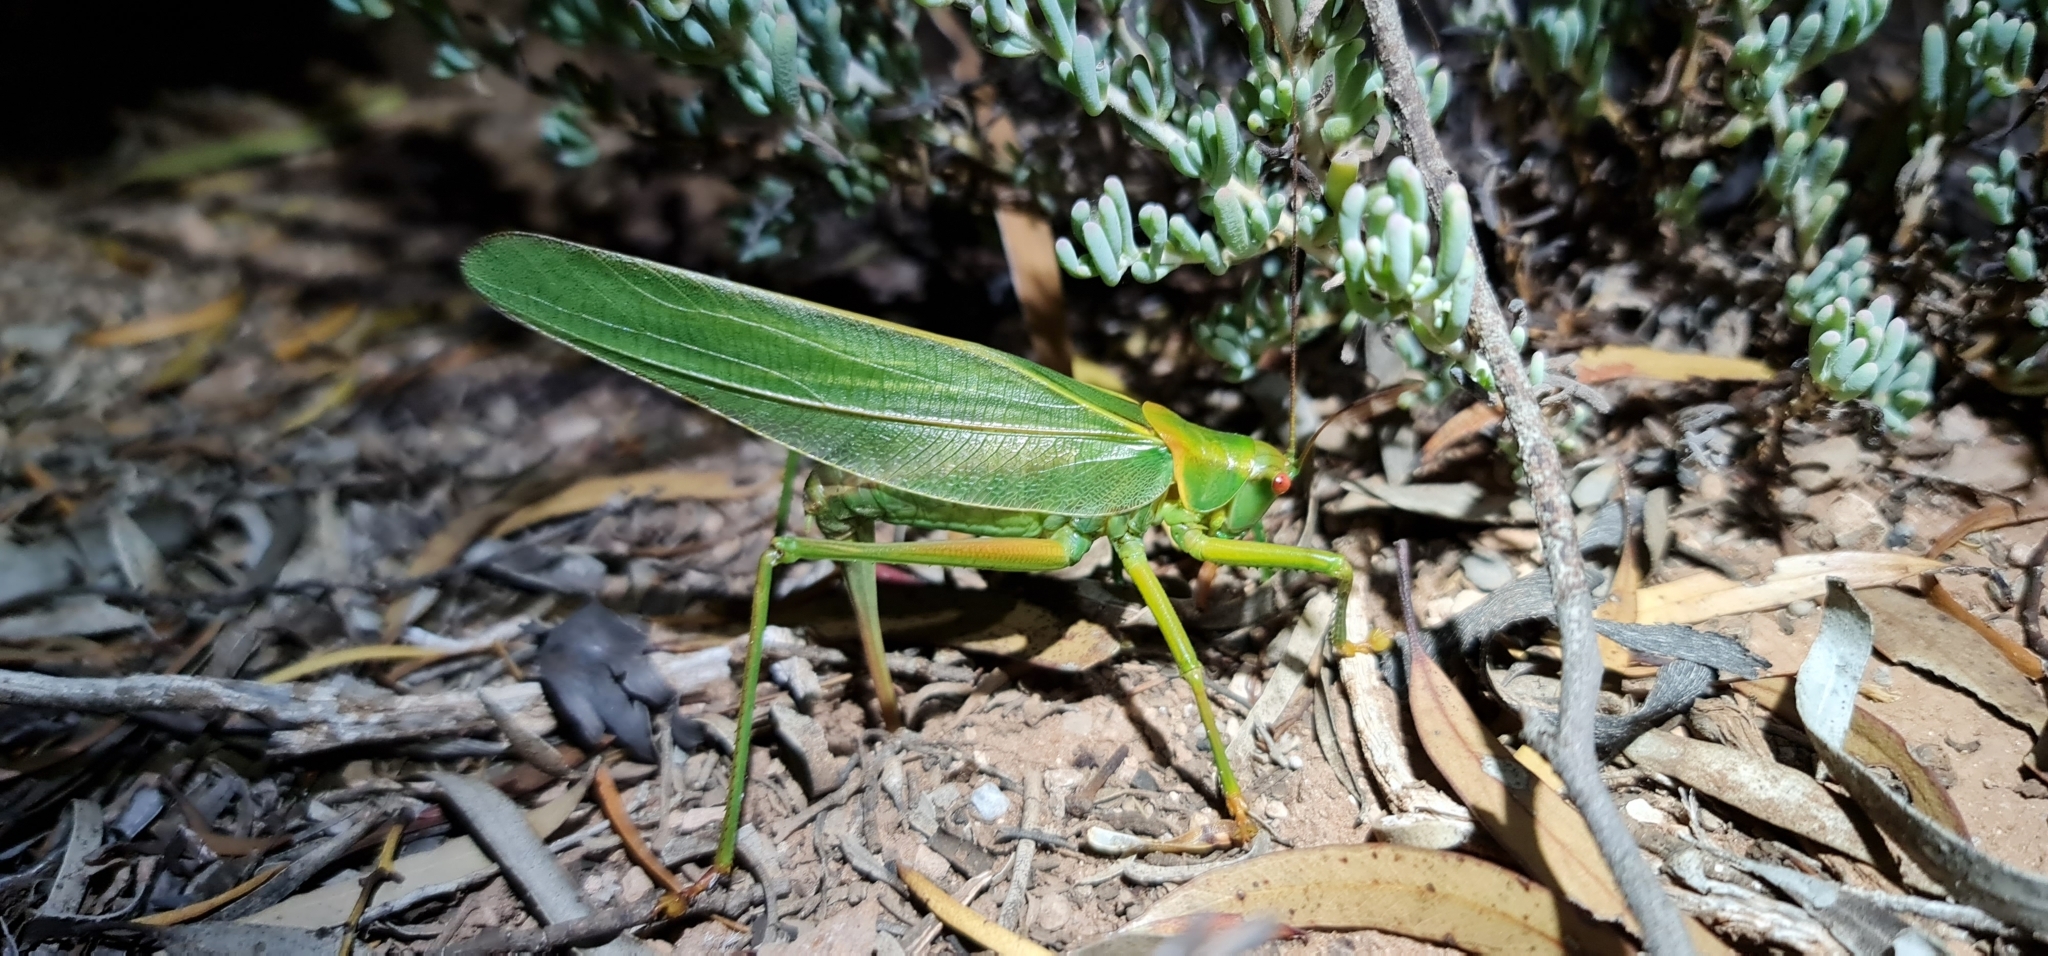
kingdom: Animalia
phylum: Arthropoda
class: Insecta
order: Orthoptera
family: Tettigoniidae
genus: Terpandrus
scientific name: Terpandrus calperum
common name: Calperum gumleaf katydid
